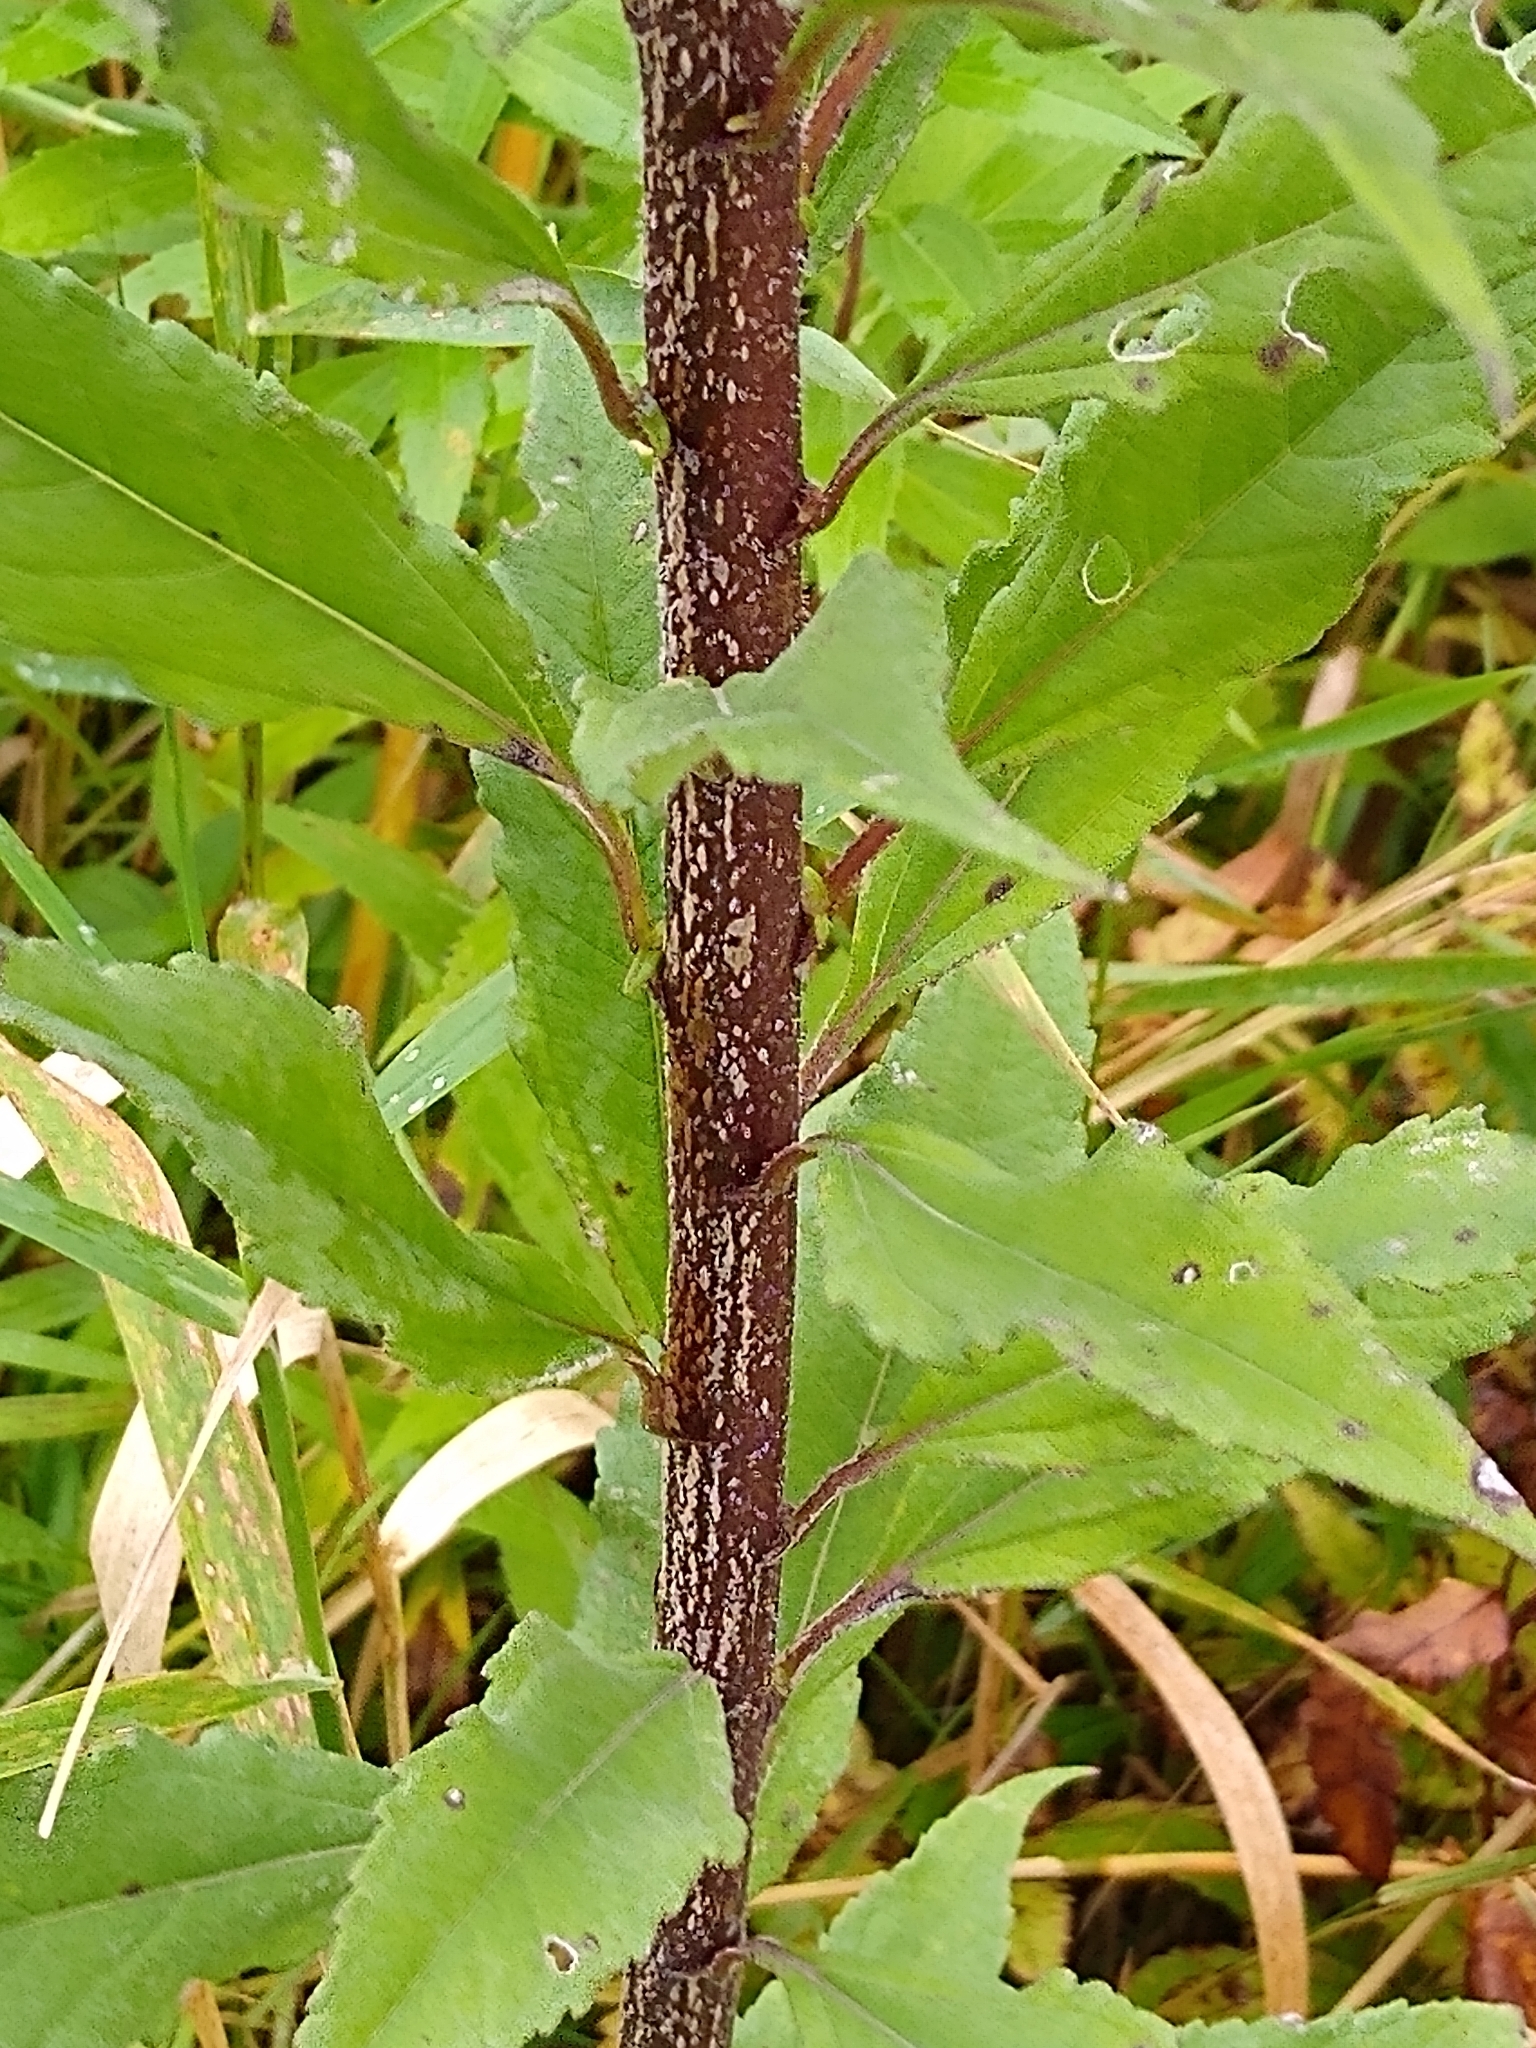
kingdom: Plantae
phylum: Tracheophyta
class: Magnoliopsida
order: Asterales
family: Asteraceae
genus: Helianthus
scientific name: Helianthus grosseserratus
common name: Sawtooth sunflower
